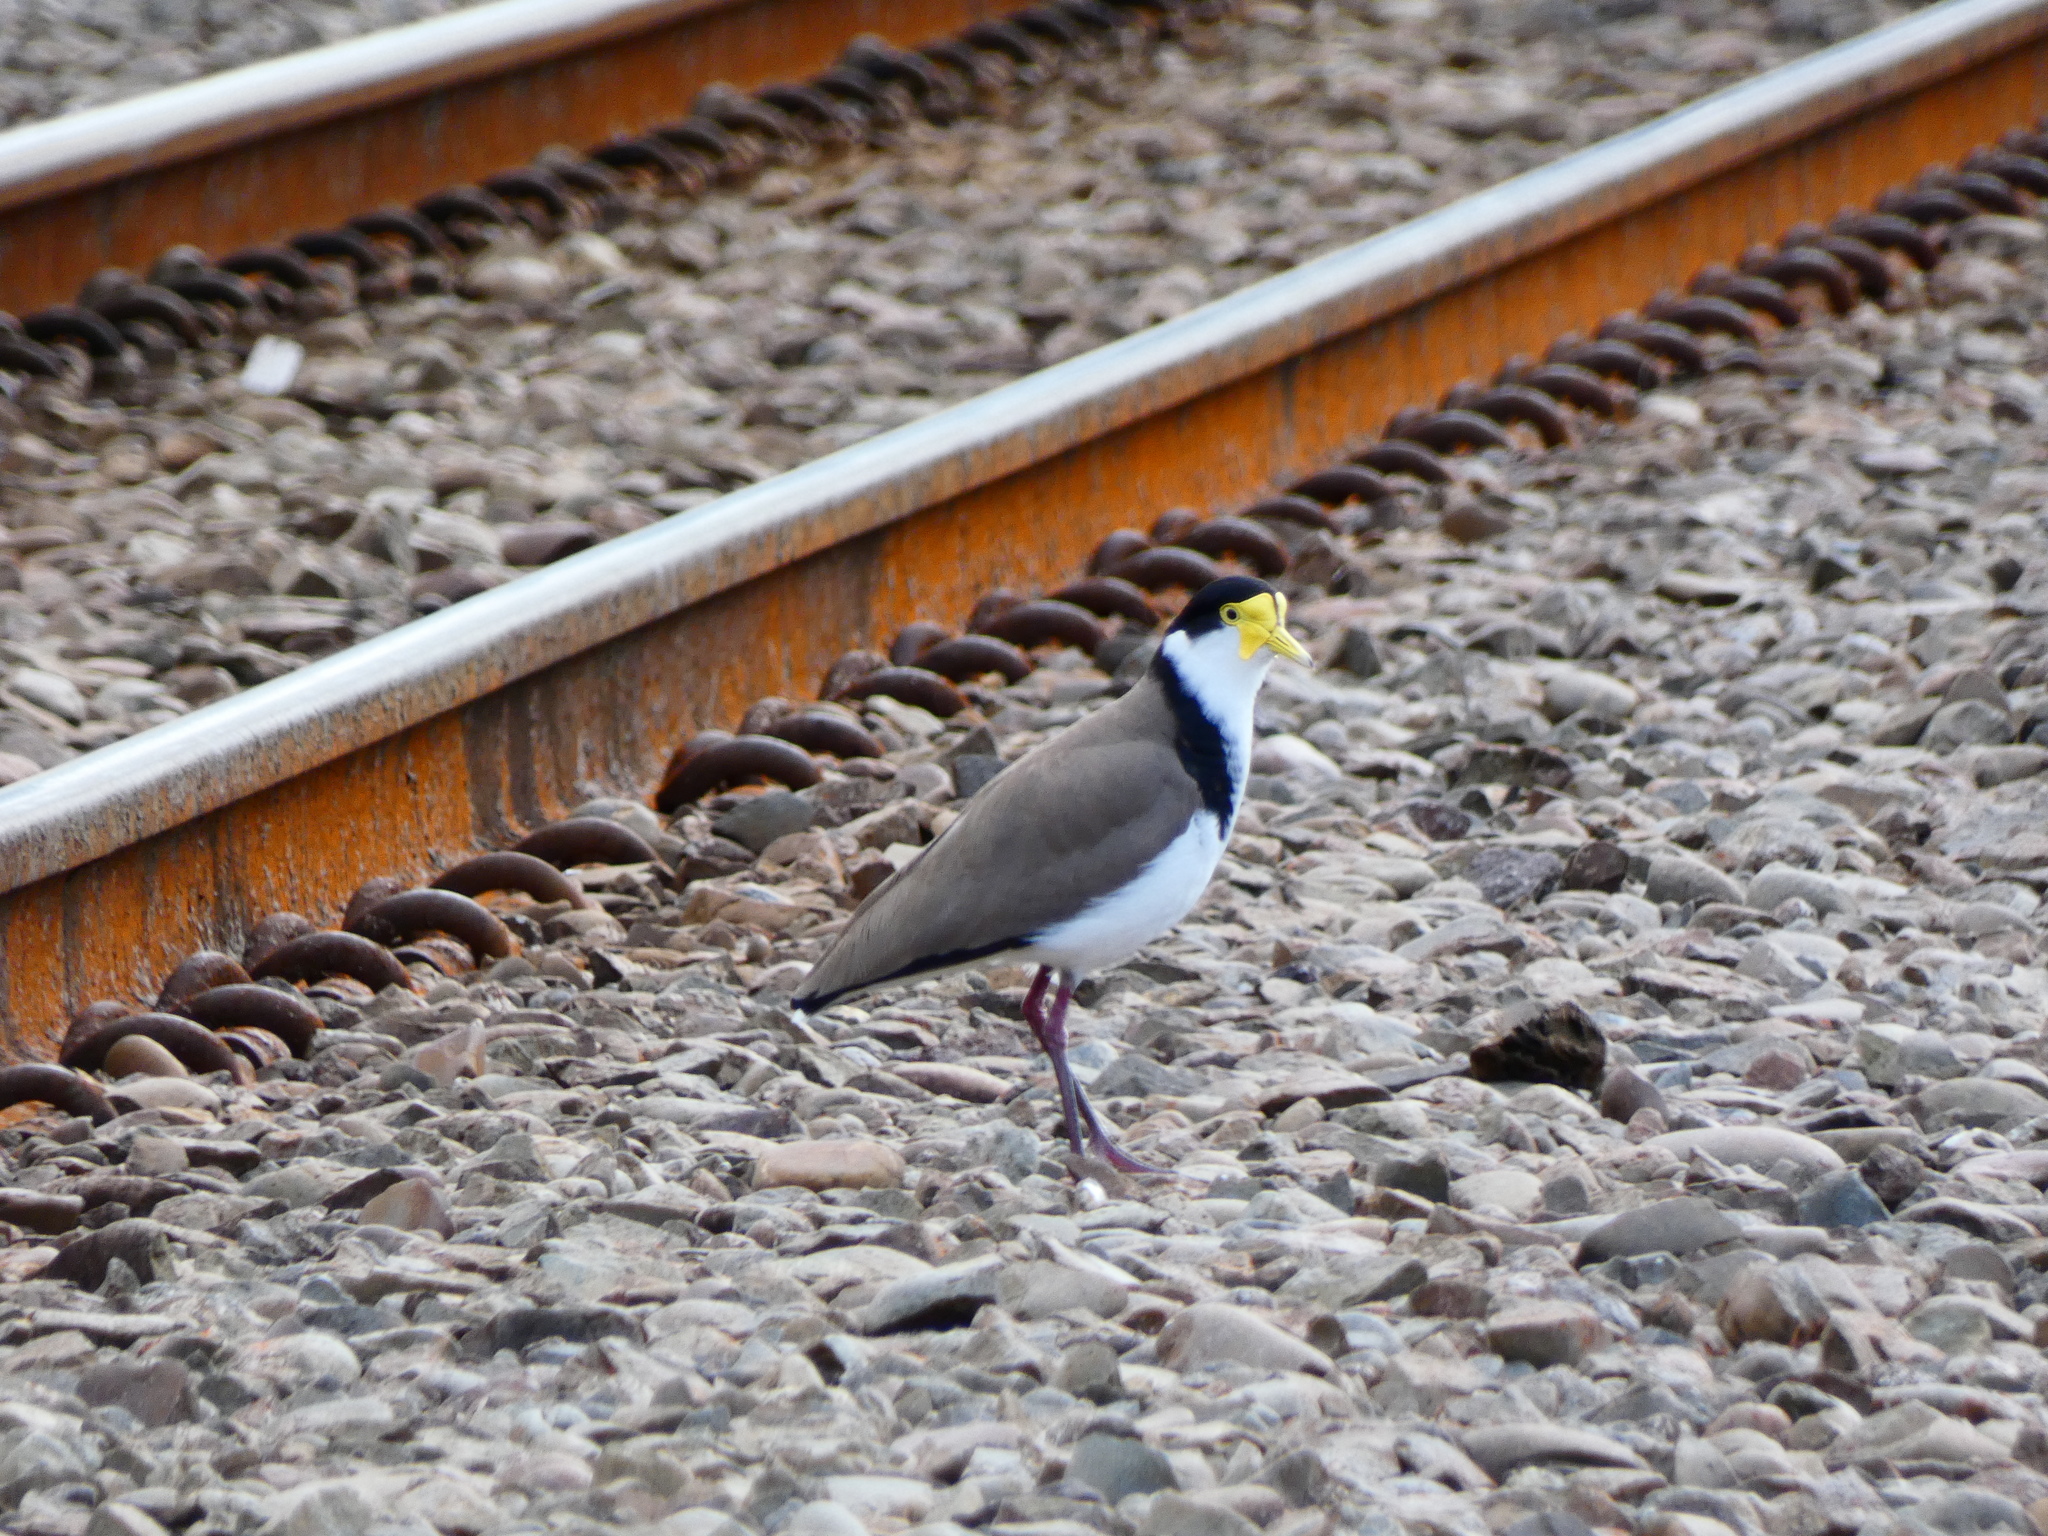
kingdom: Animalia
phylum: Chordata
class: Aves
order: Charadriiformes
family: Charadriidae
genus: Vanellus
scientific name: Vanellus miles
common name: Masked lapwing
